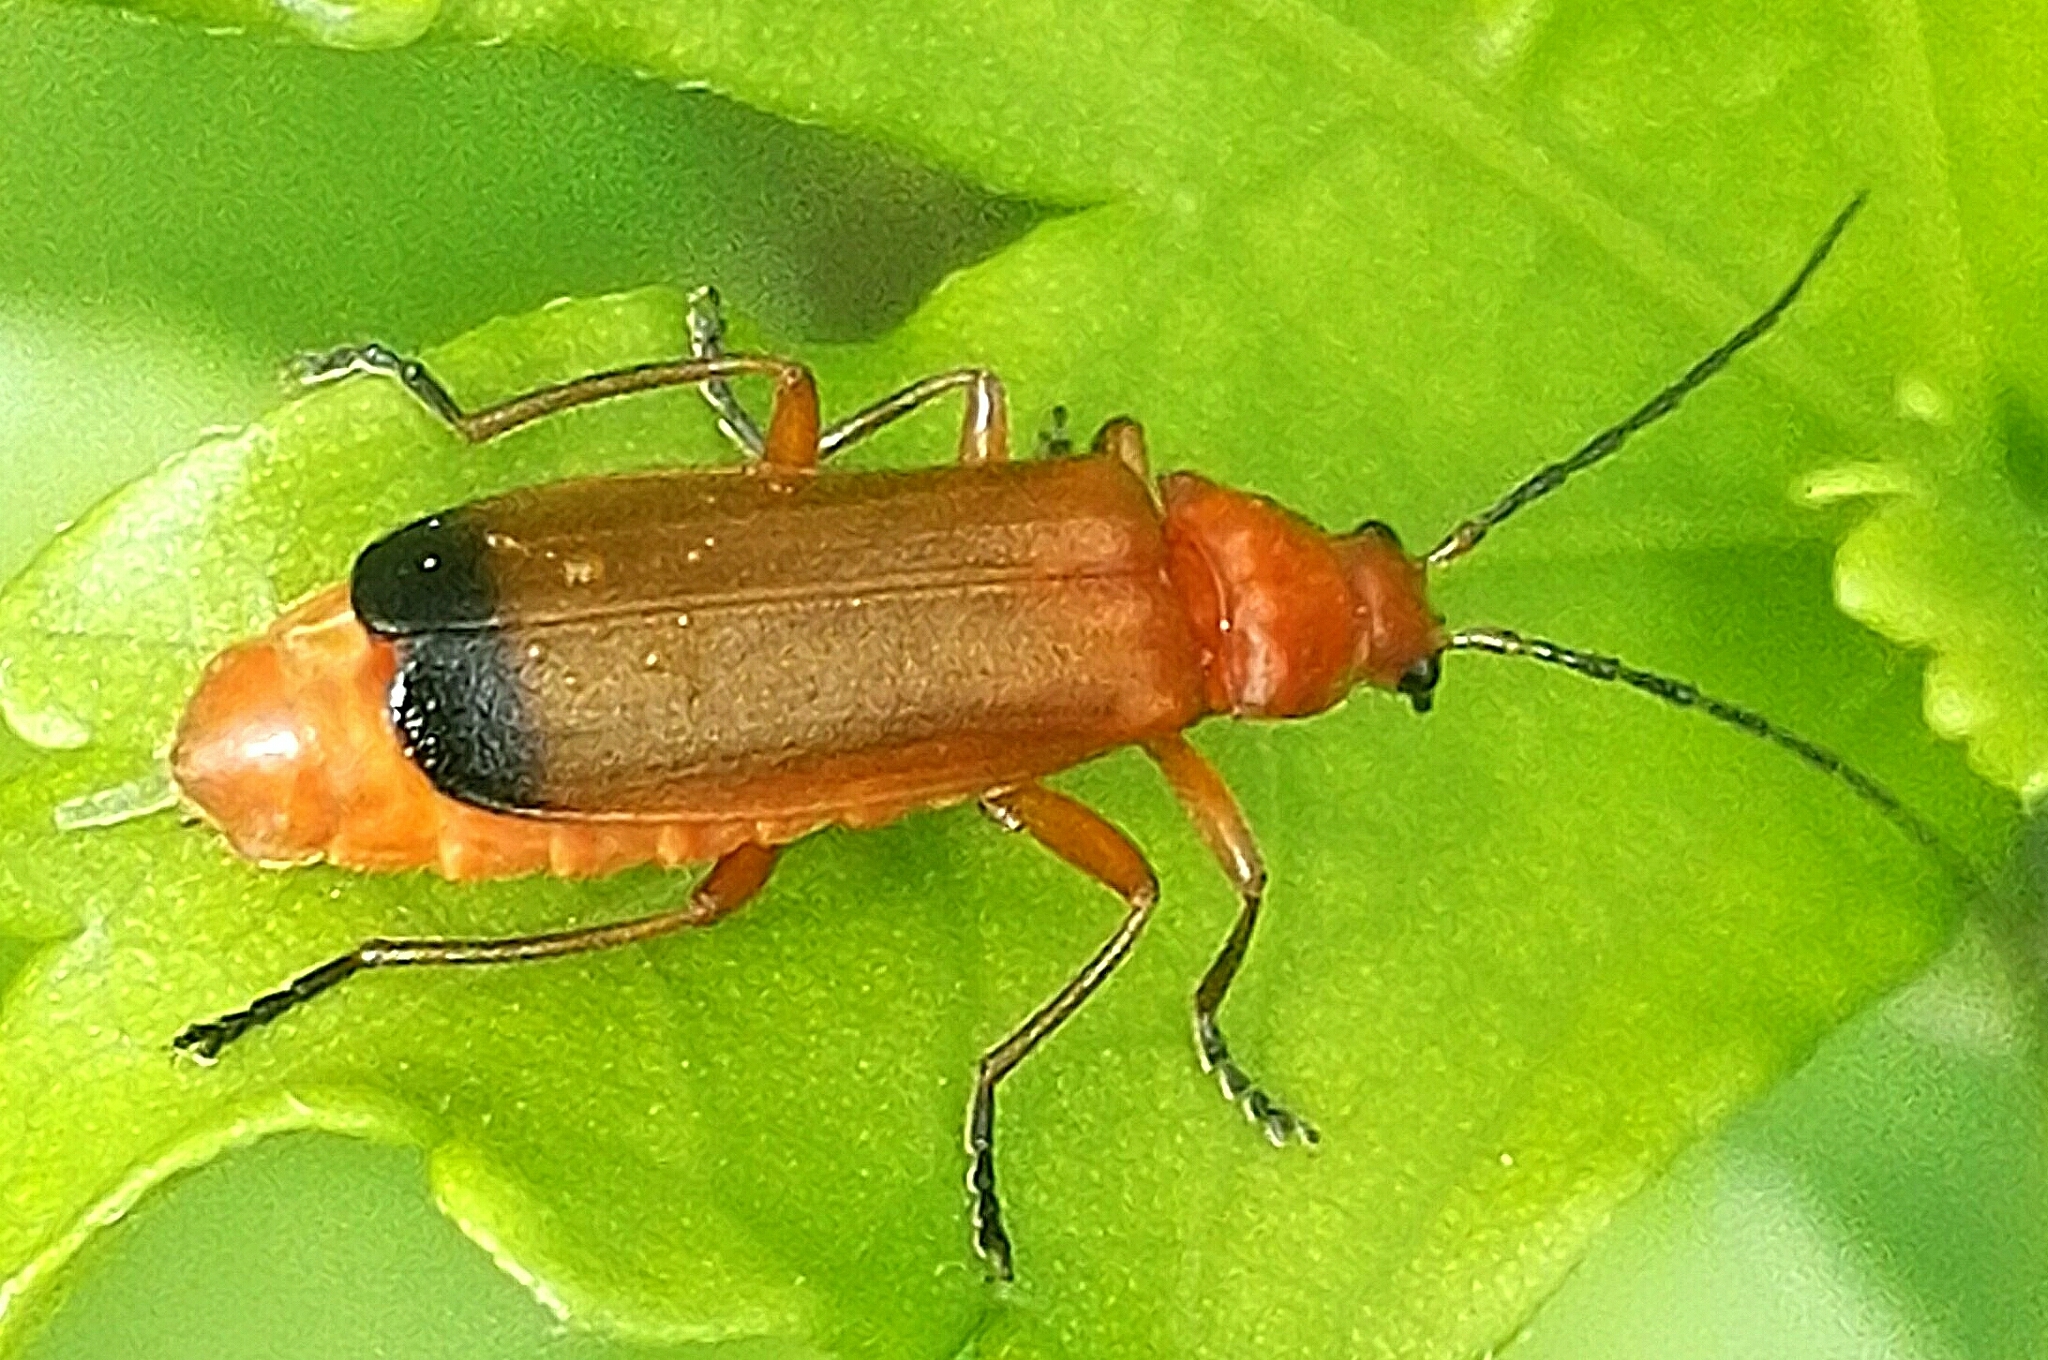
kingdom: Animalia
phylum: Arthropoda
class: Insecta
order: Coleoptera
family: Cantharidae
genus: Rhagonycha
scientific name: Rhagonycha fulva
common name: Common red soldier beetle
